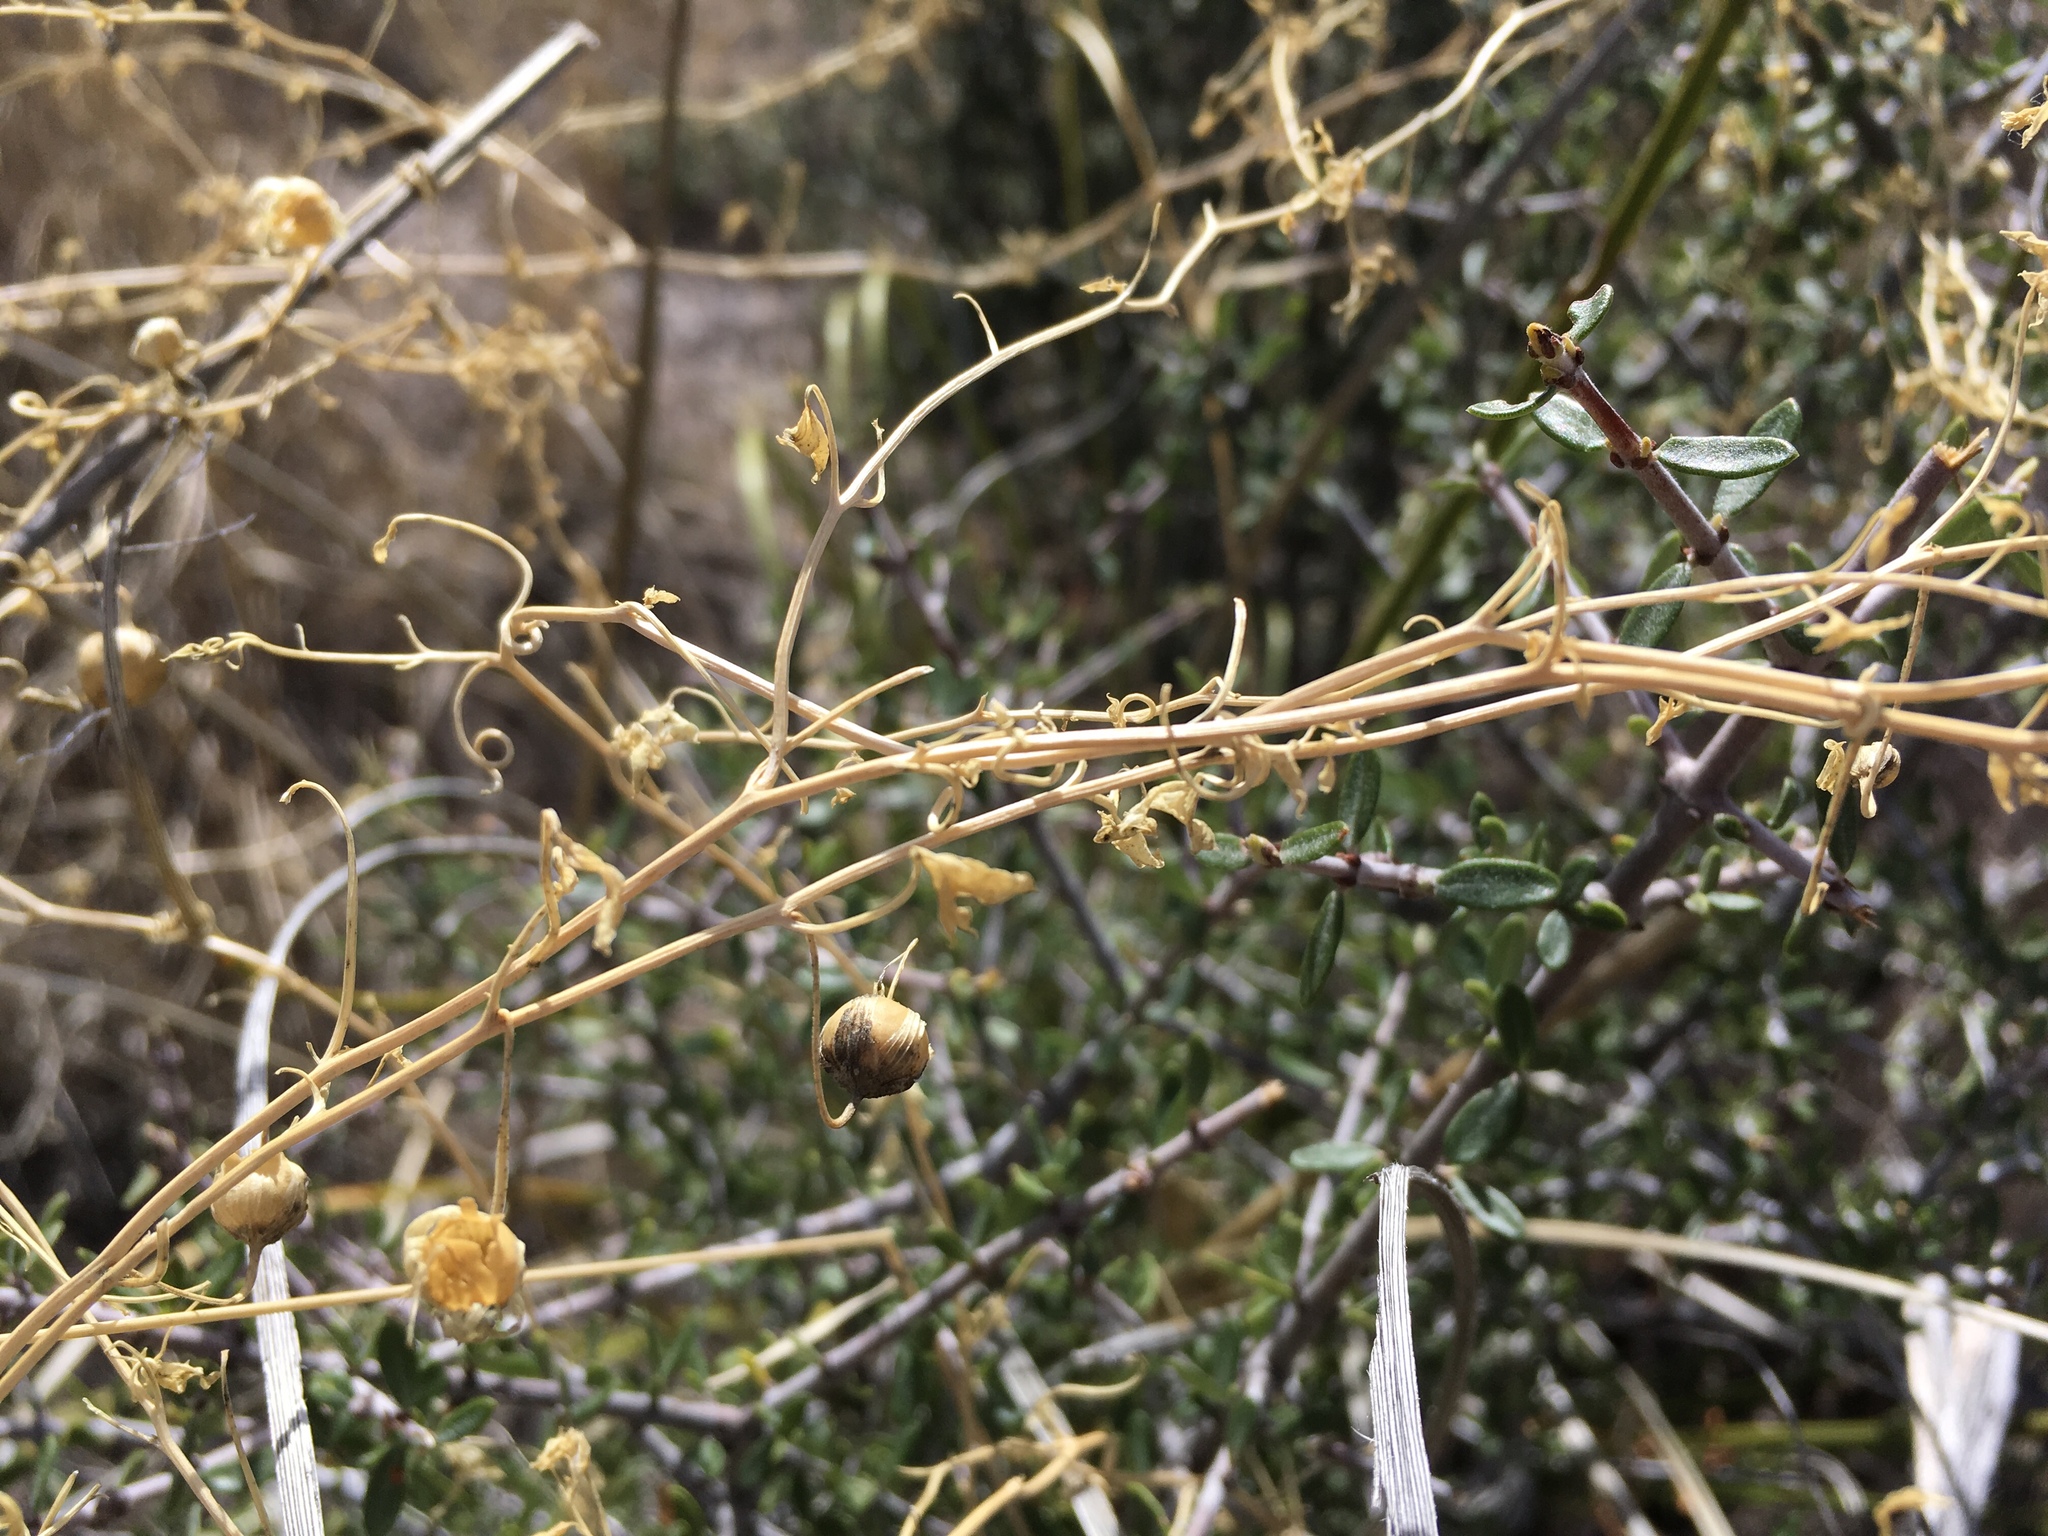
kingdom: Plantae
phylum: Tracheophyta
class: Magnoliopsida
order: Lamiales
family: Plantaginaceae
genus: Maurandella
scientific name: Maurandella antirrhiniflora
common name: Violet twining-snapdragon
